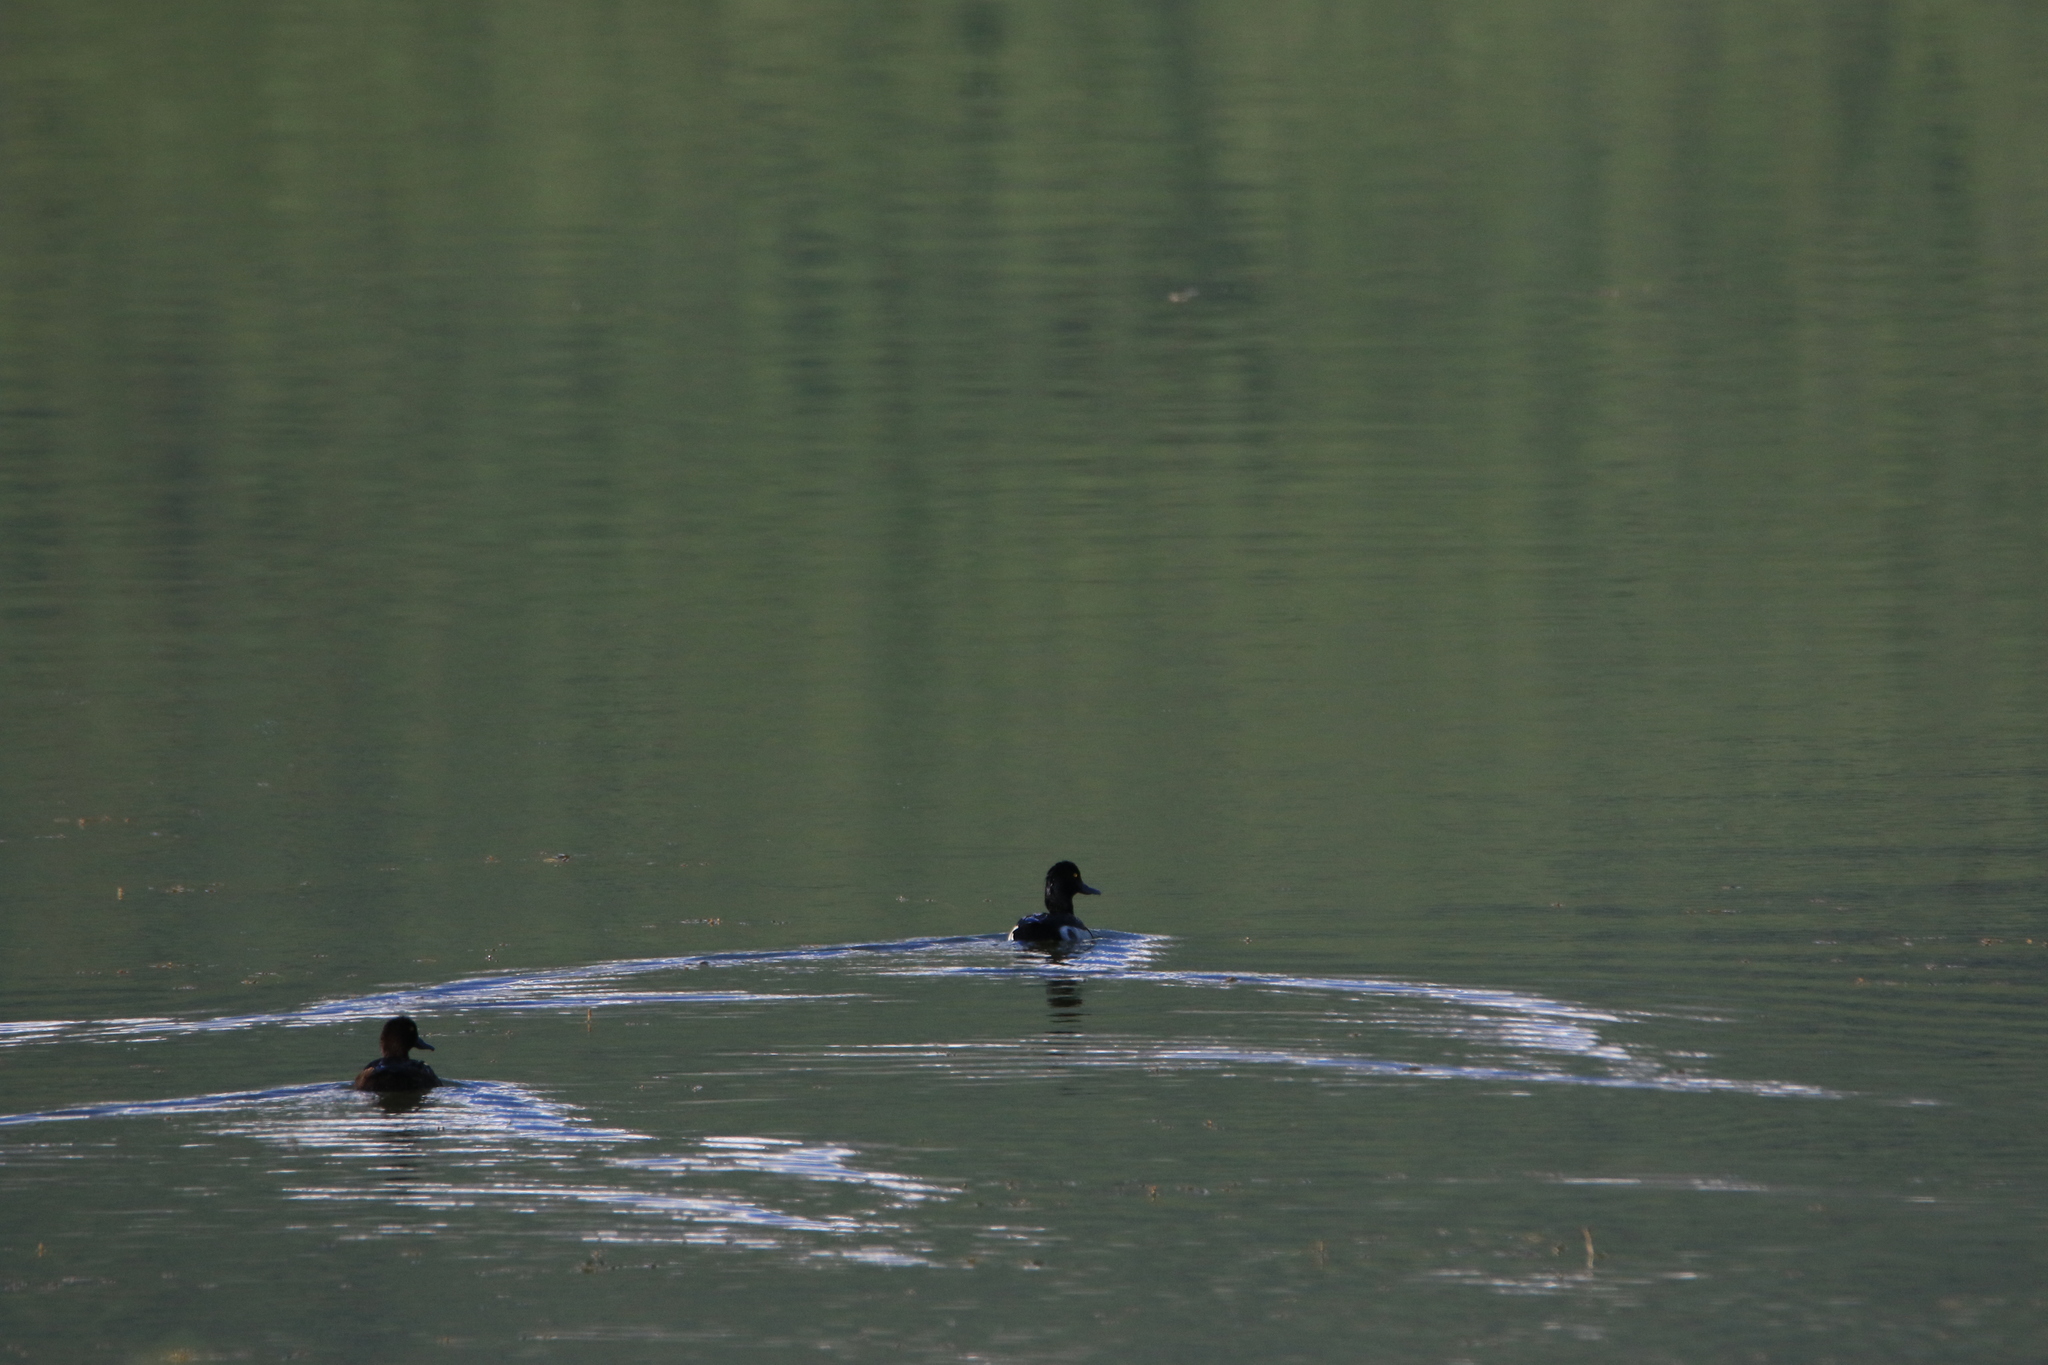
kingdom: Animalia
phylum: Chordata
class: Aves
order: Anseriformes
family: Anatidae
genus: Aythya
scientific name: Aythya fuligula
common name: Tufted duck
